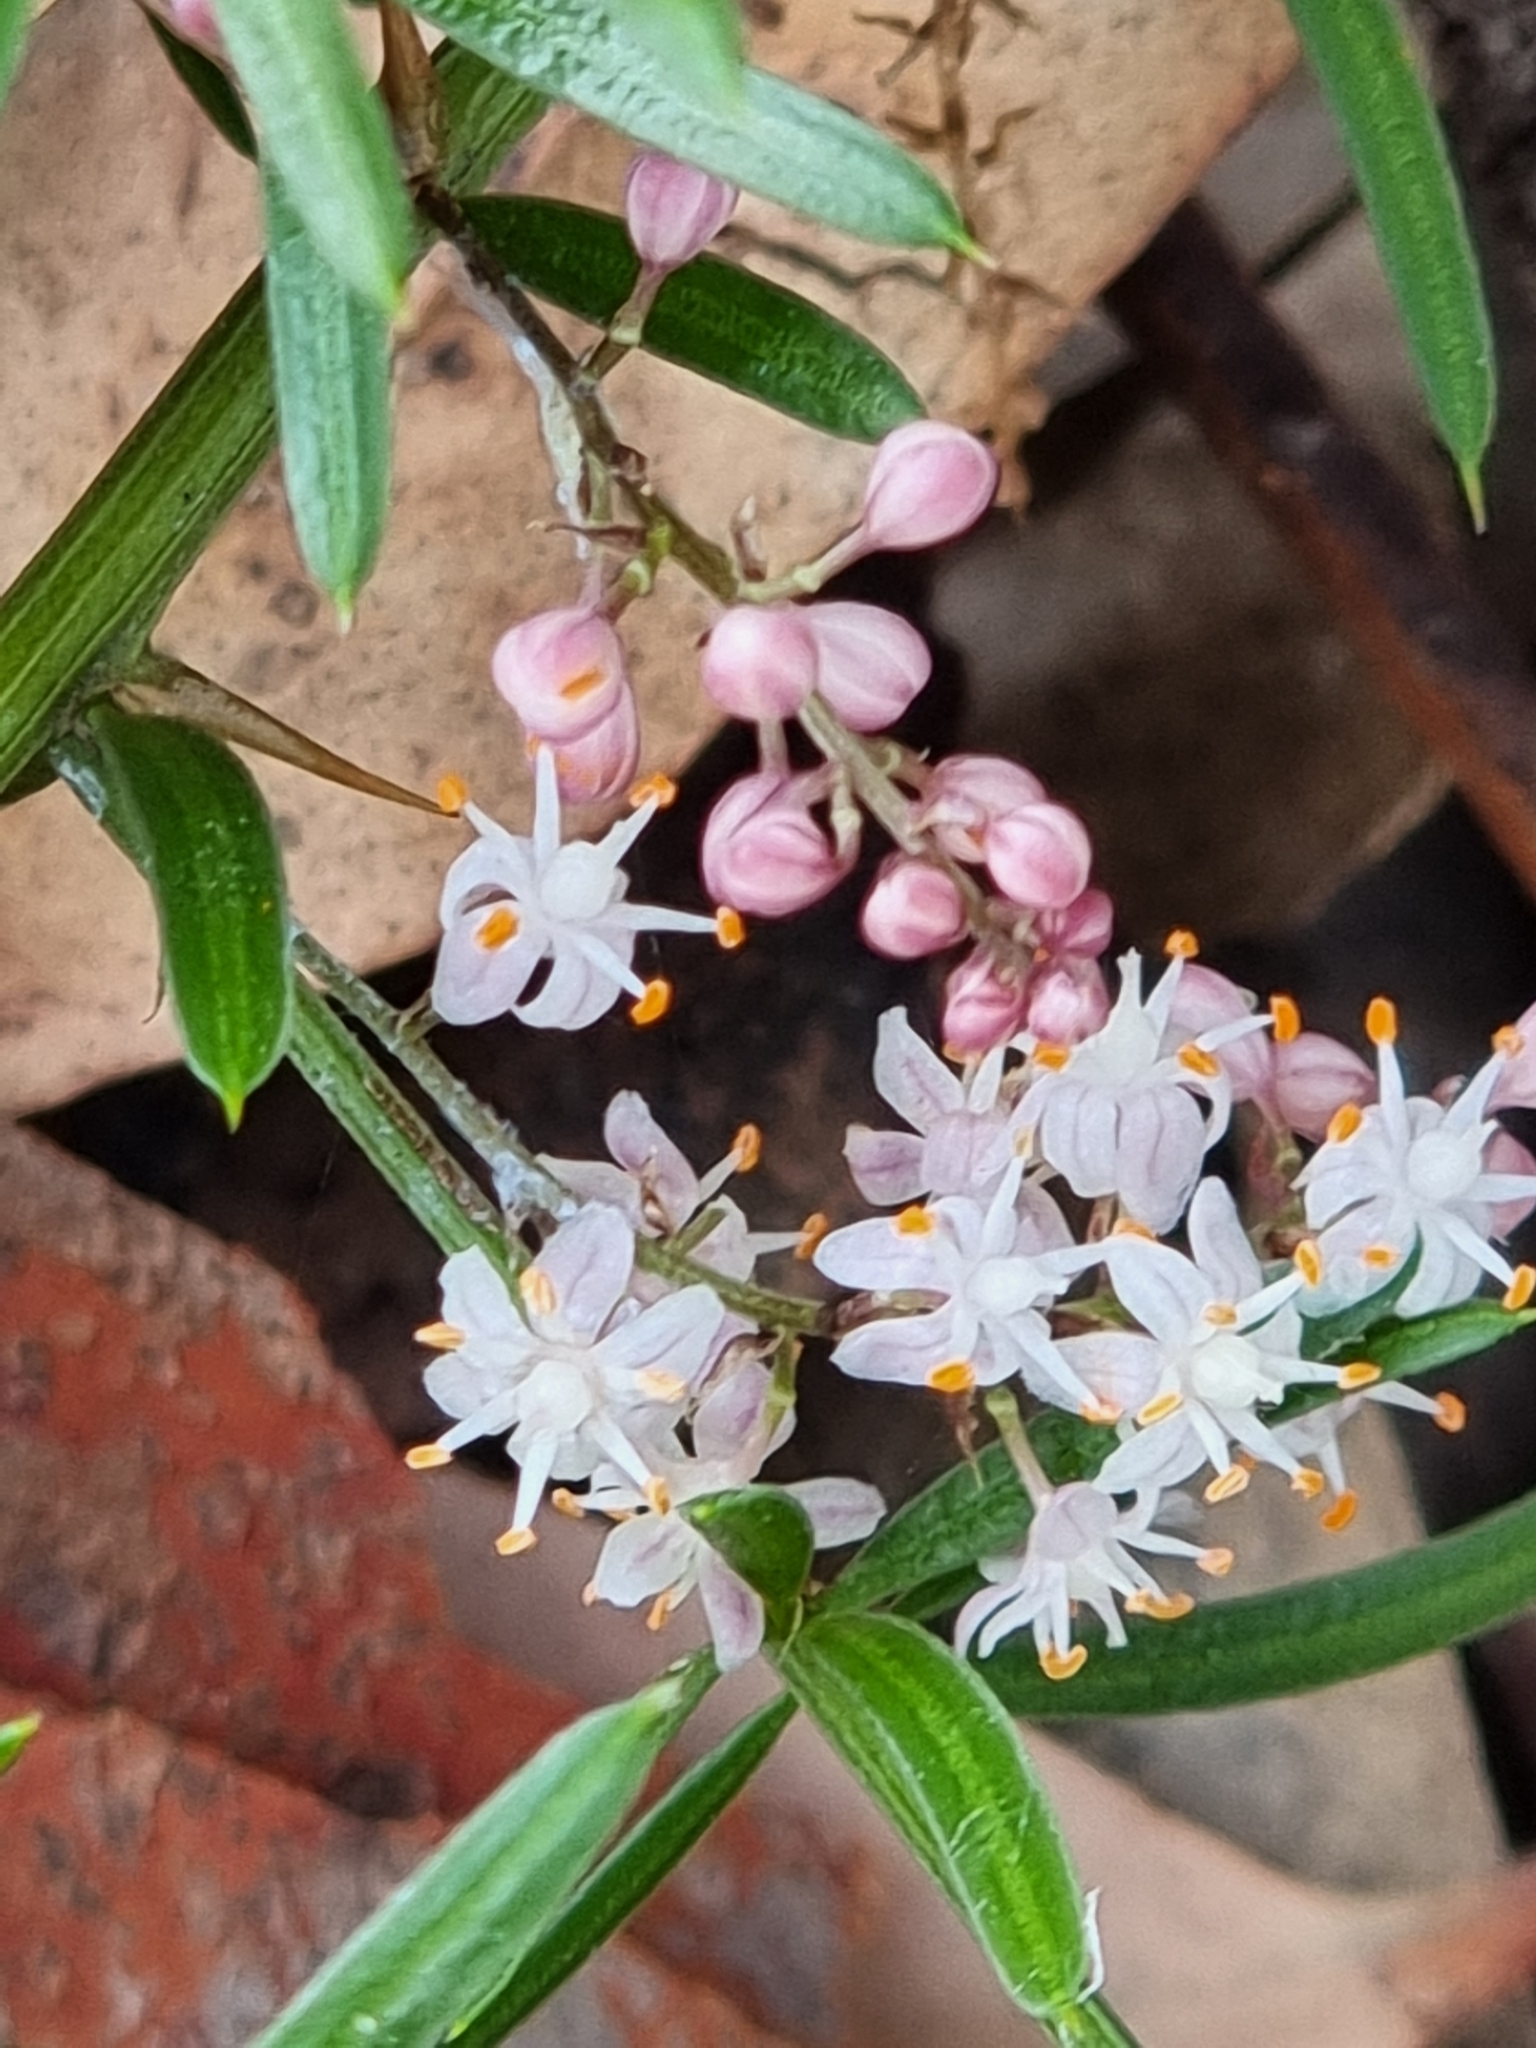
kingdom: Plantae
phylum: Tracheophyta
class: Liliopsida
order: Asparagales
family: Asparagaceae
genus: Asparagus
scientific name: Asparagus aethiopicus
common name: Sprenger's asparagus fern
